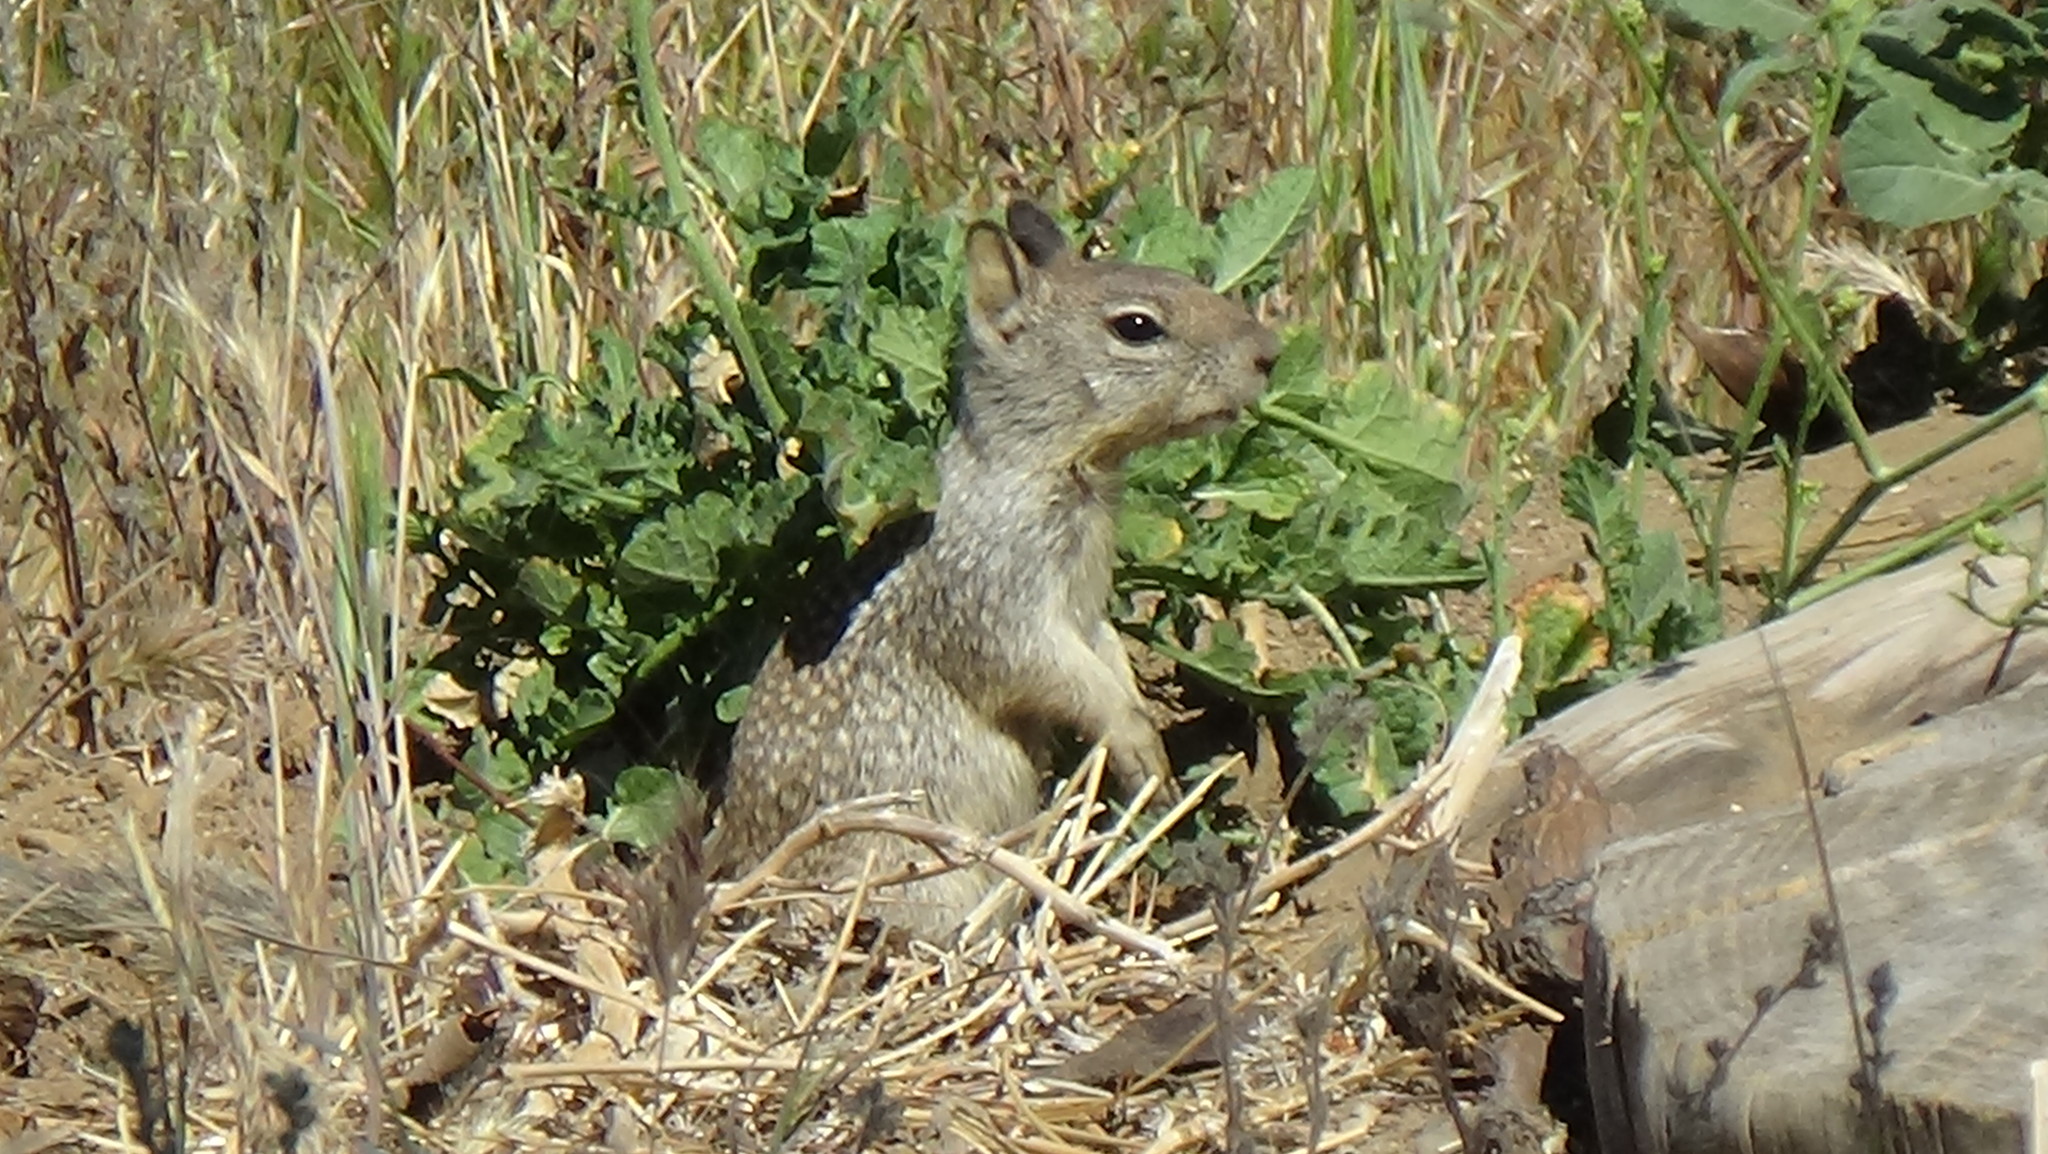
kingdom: Animalia
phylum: Chordata
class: Mammalia
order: Rodentia
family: Sciuridae
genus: Otospermophilus
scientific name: Otospermophilus beecheyi
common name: California ground squirrel
